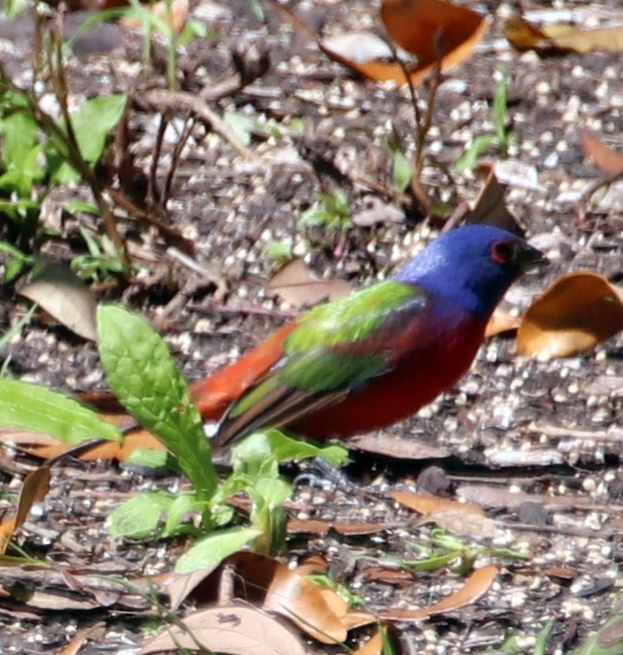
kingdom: Animalia
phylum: Chordata
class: Aves
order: Passeriformes
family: Cardinalidae
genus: Passerina
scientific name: Passerina ciris
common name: Painted bunting
